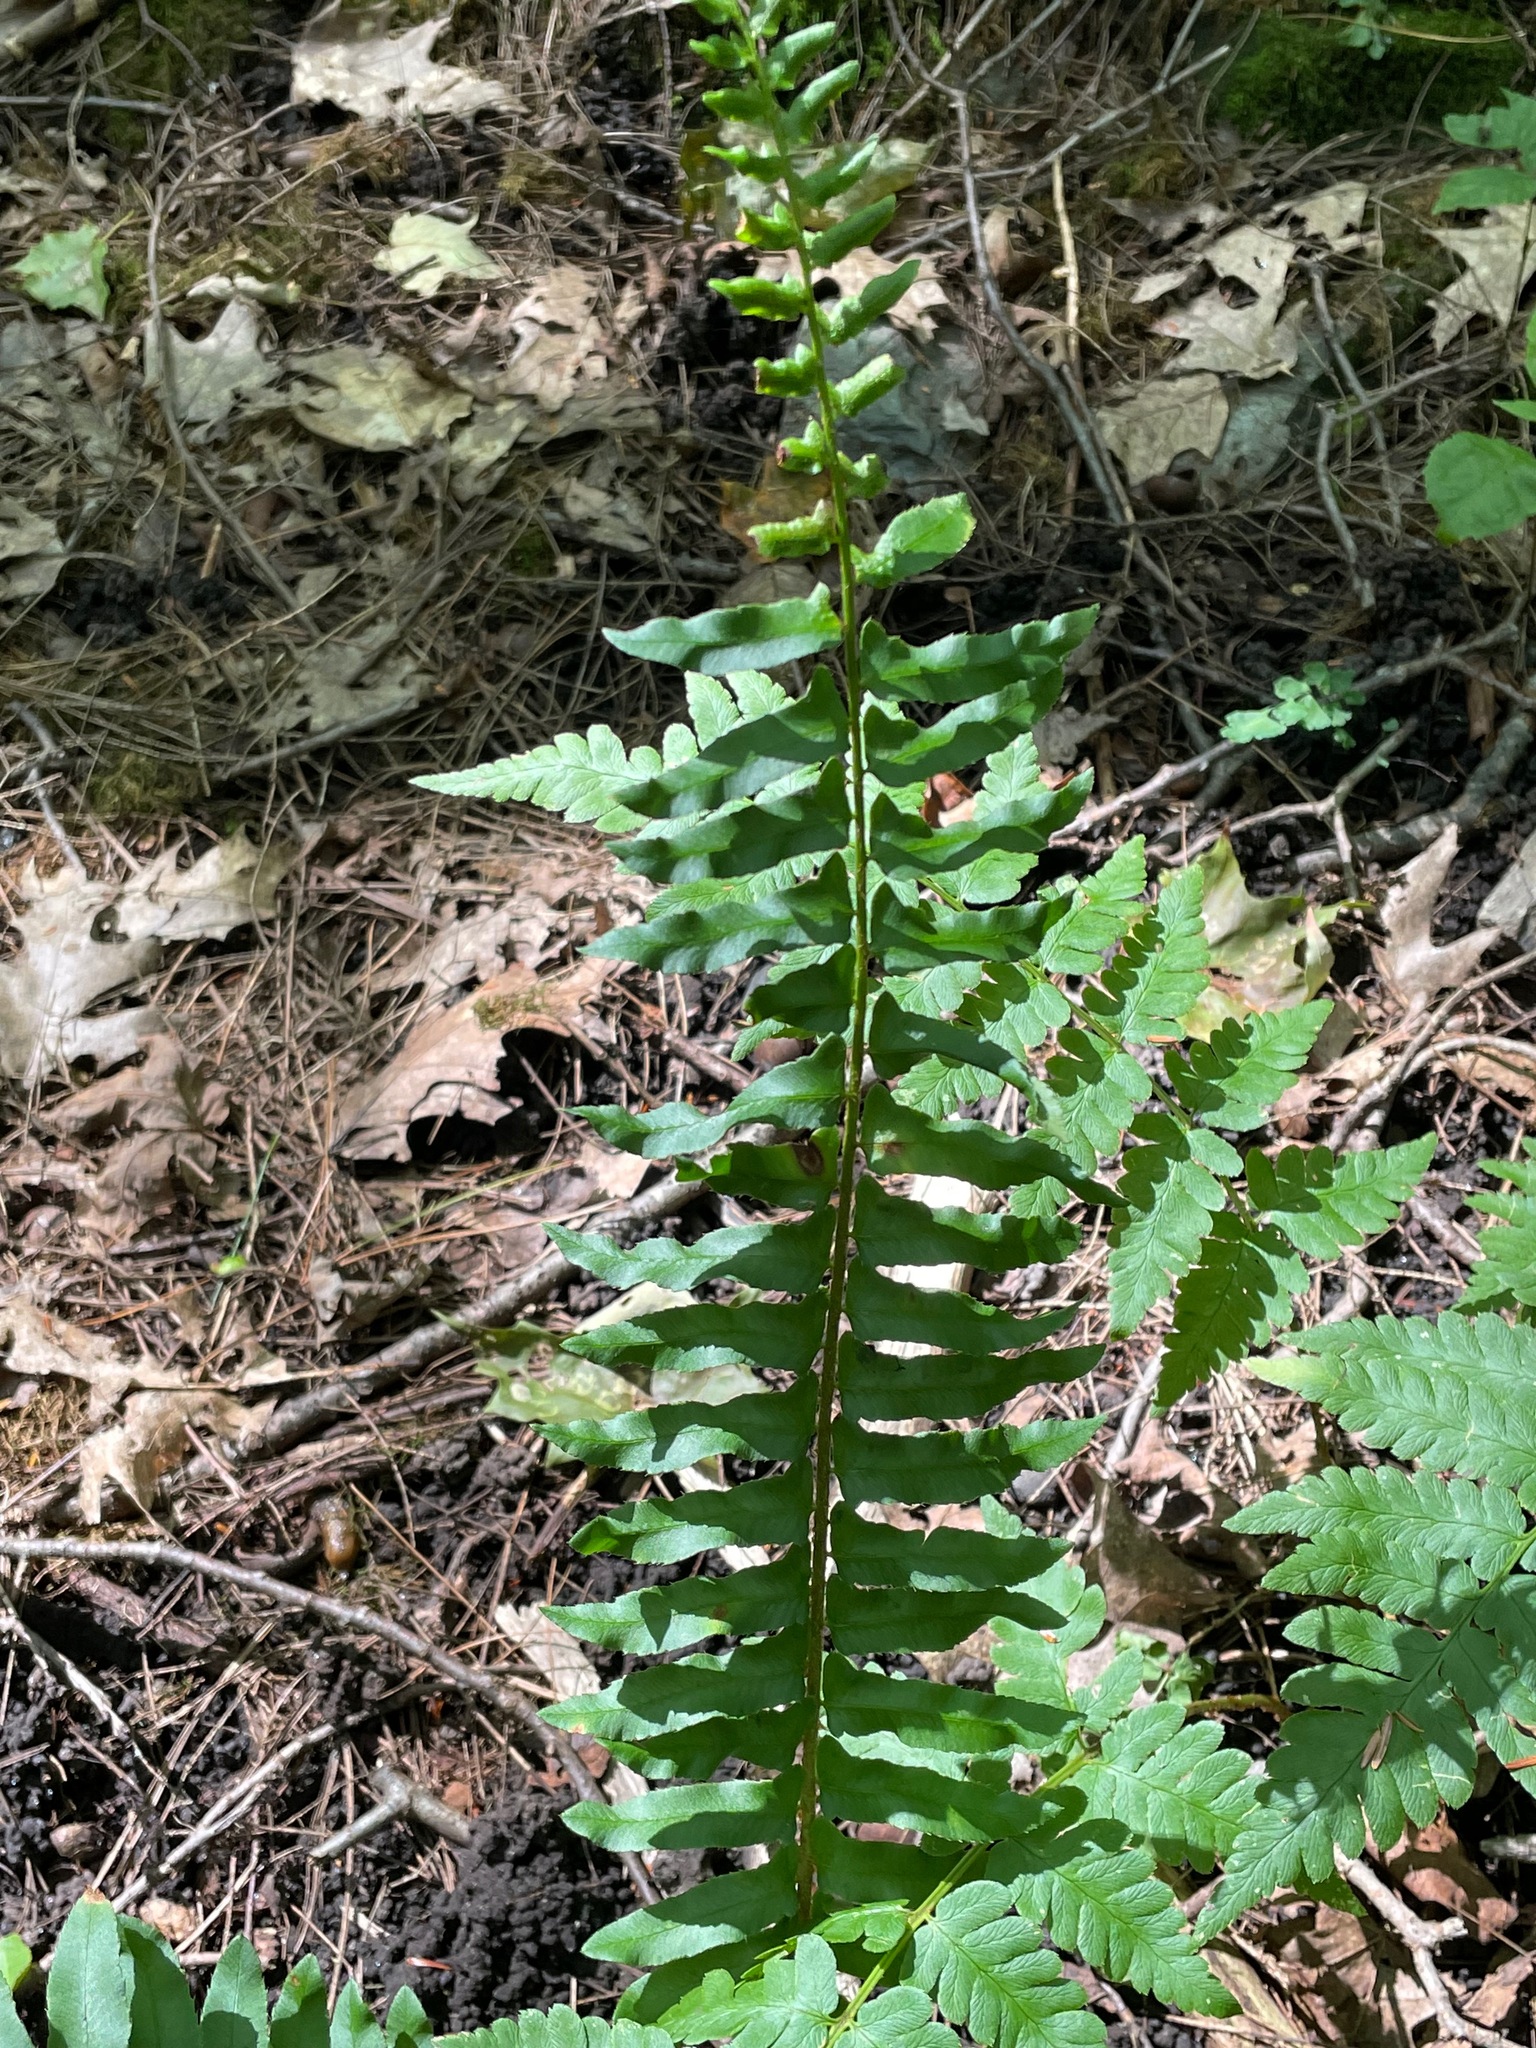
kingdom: Plantae
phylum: Tracheophyta
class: Polypodiopsida
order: Polypodiales
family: Dryopteridaceae
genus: Polystichum
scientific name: Polystichum acrostichoides
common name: Christmas fern
